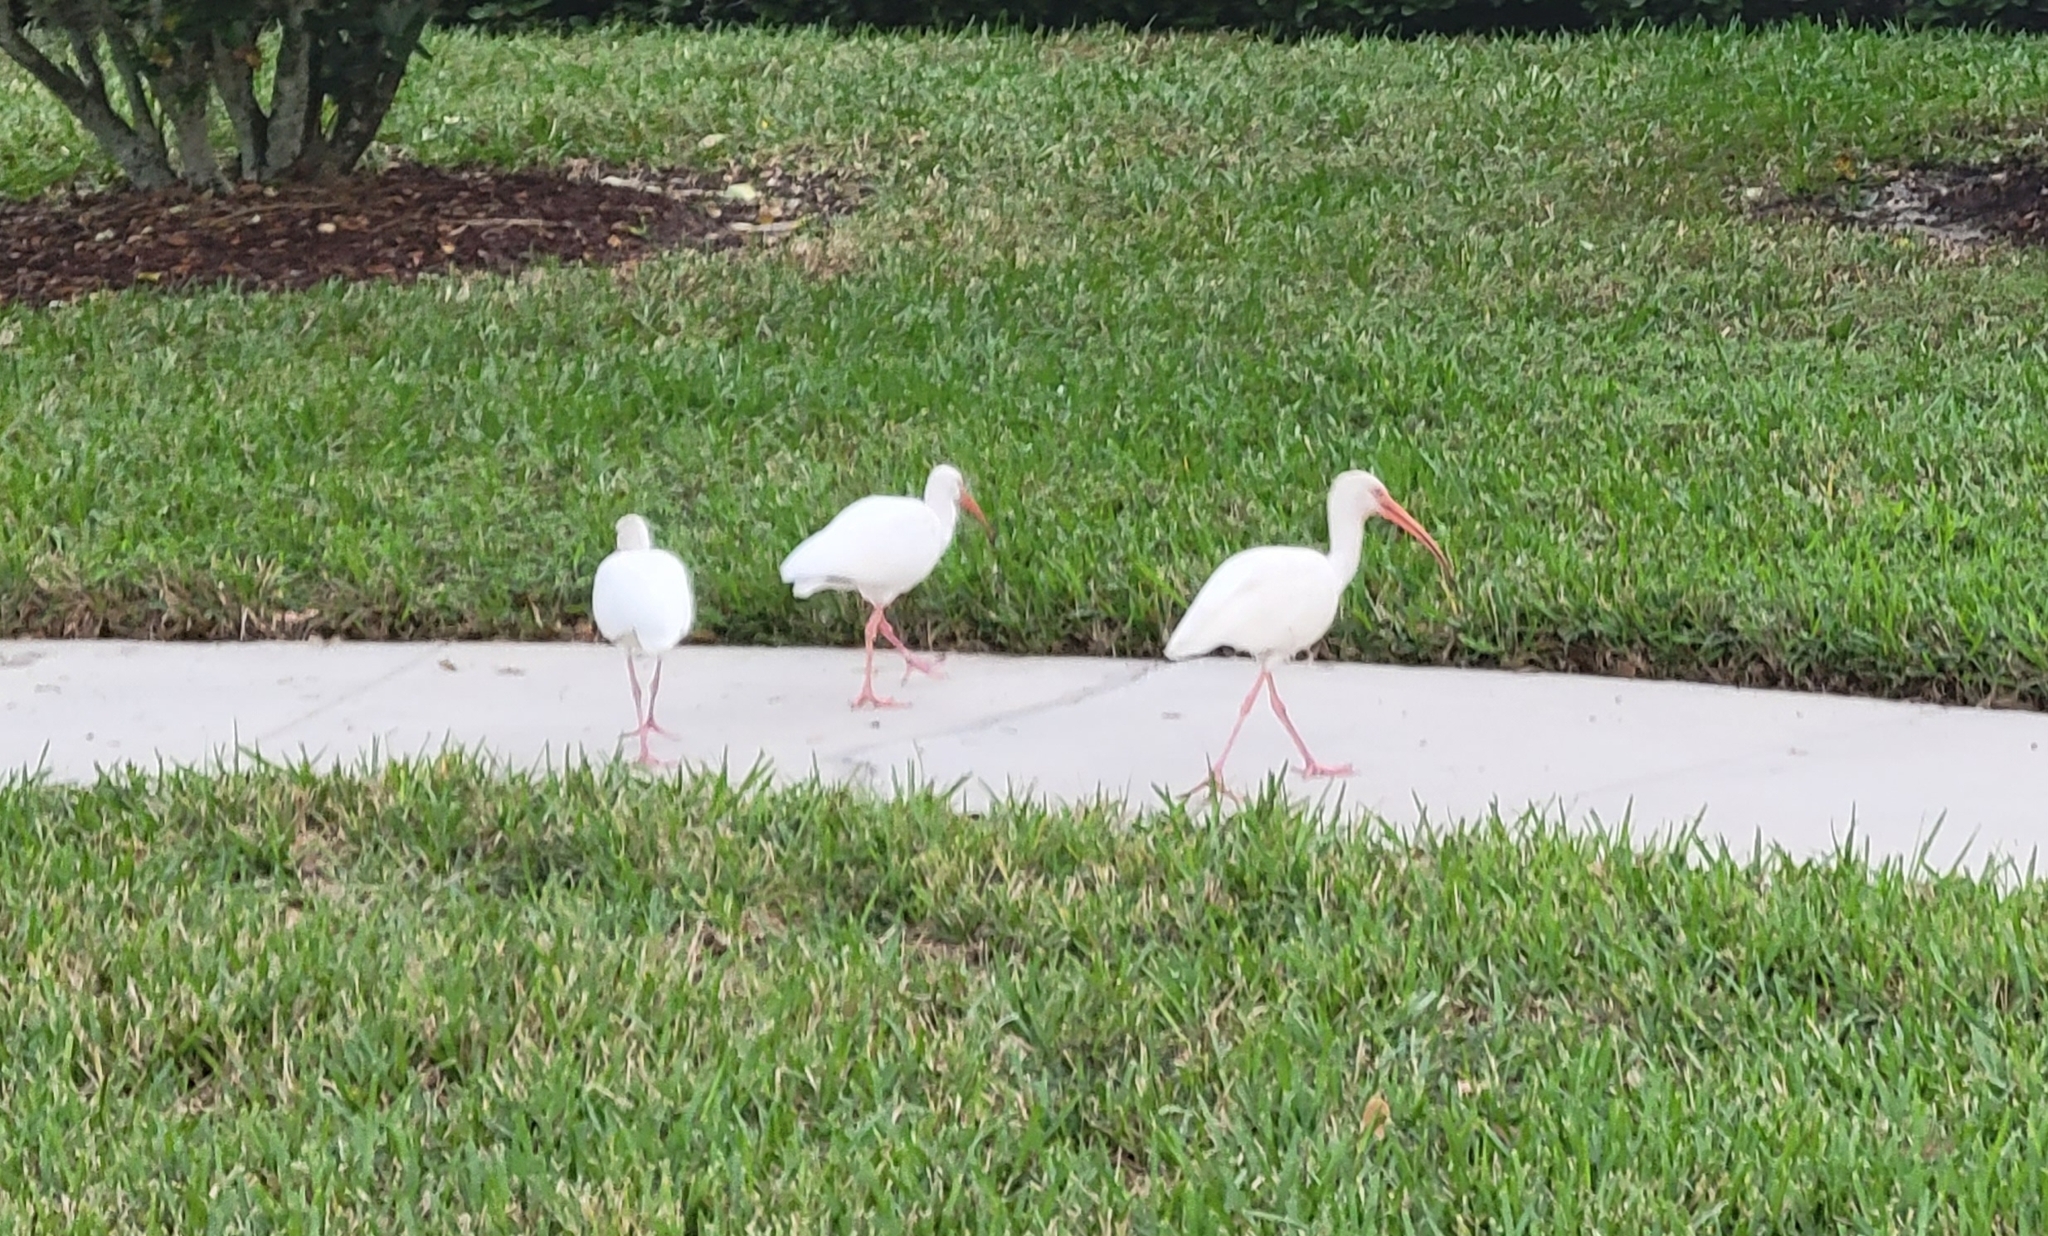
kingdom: Animalia
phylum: Chordata
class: Aves
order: Pelecaniformes
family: Threskiornithidae
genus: Eudocimus
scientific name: Eudocimus albus
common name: White ibis
